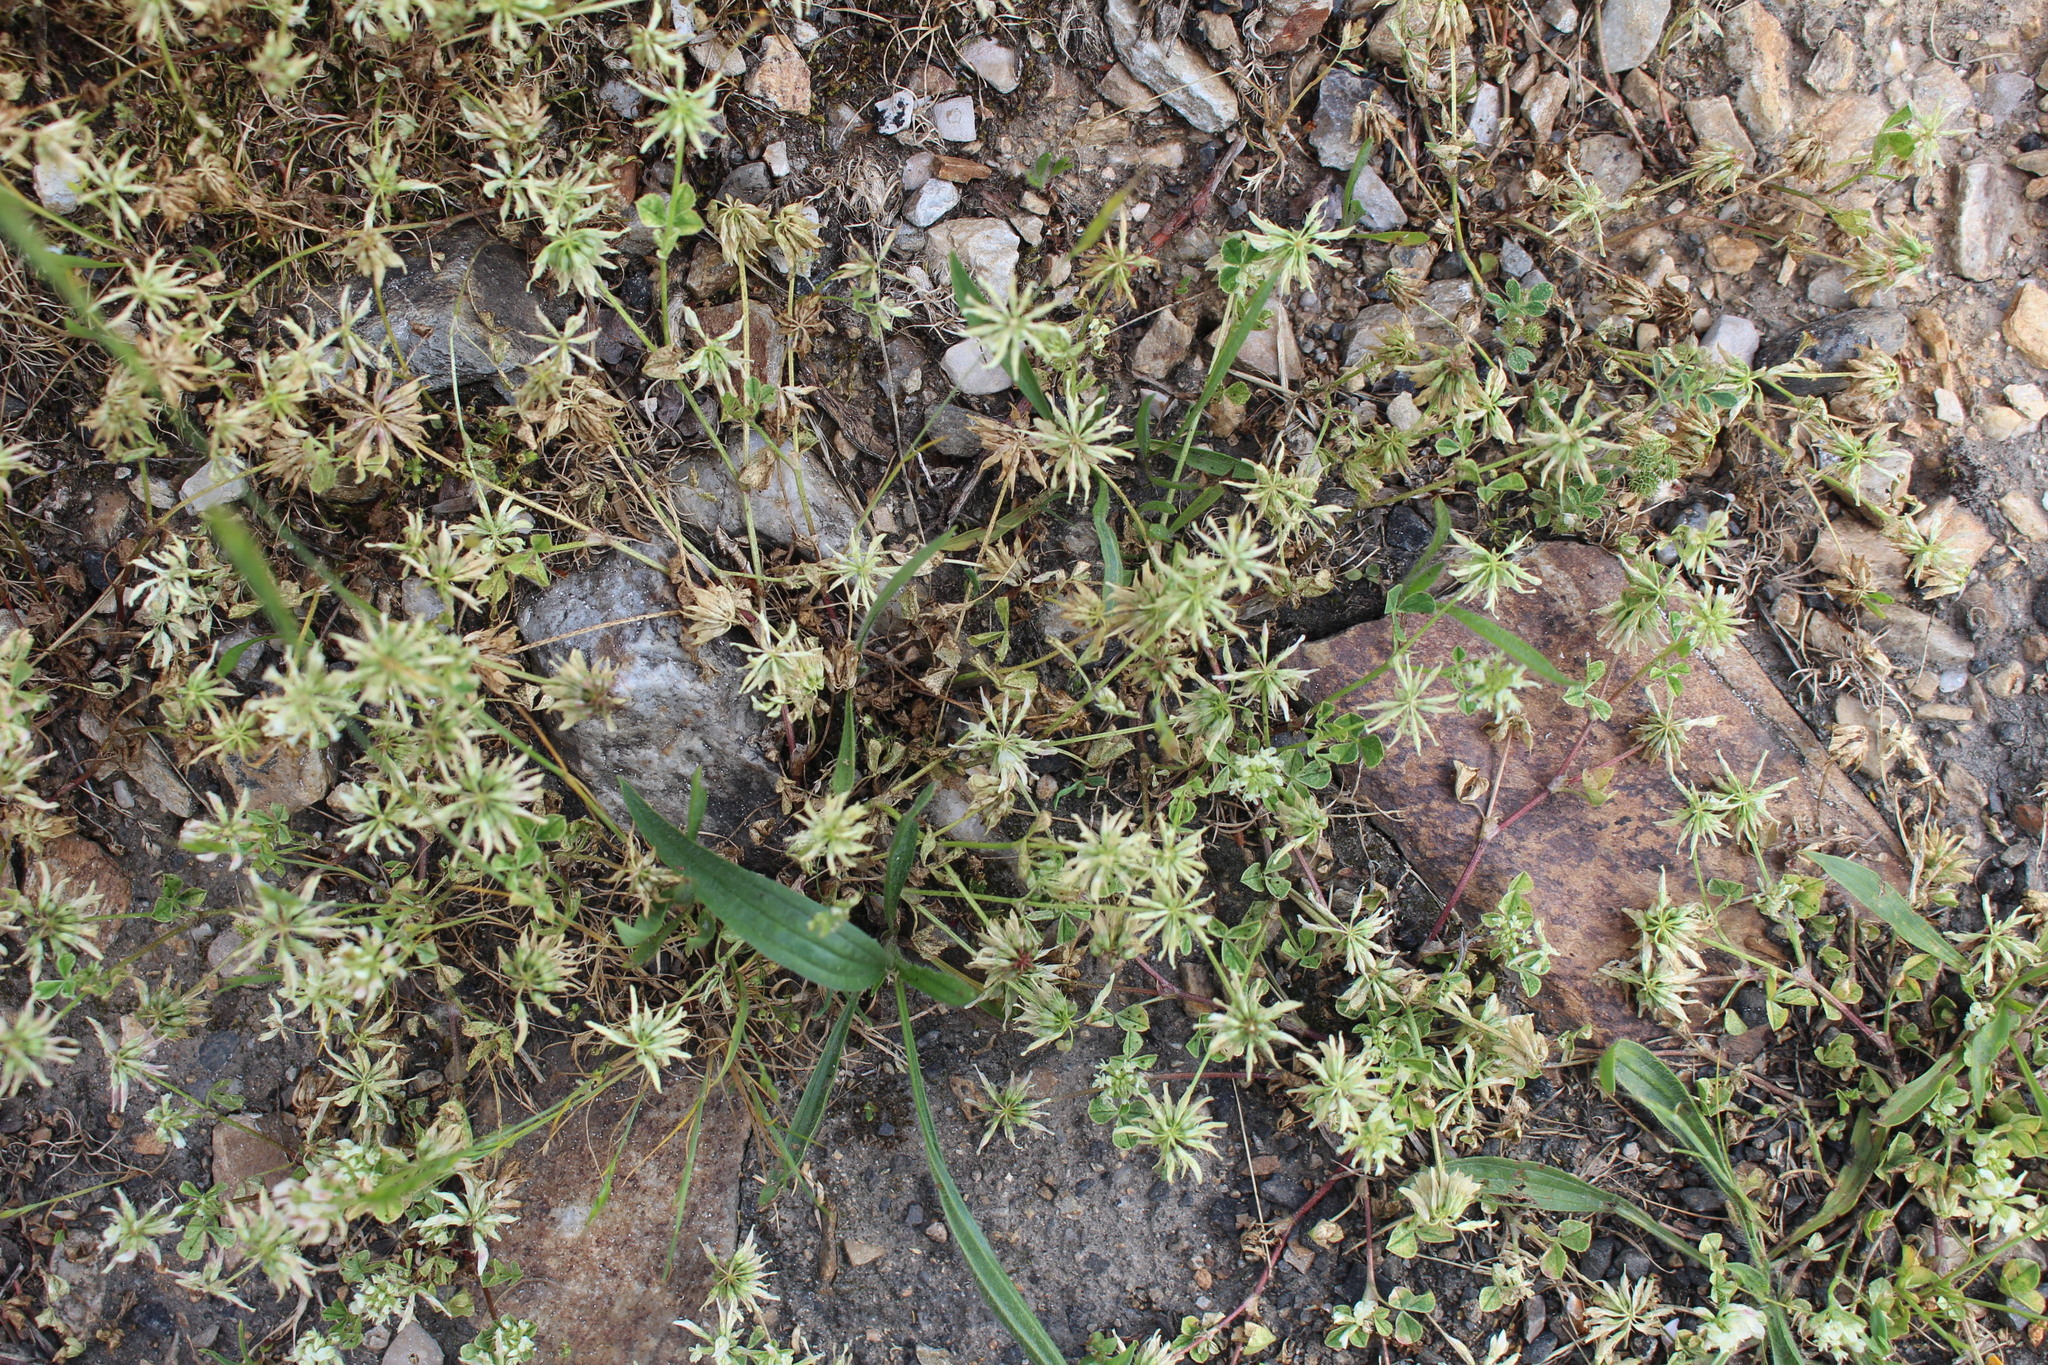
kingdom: Plantae
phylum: Tracheophyta
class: Magnoliopsida
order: Fabales
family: Fabaceae
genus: Trifolium
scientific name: Trifolium nigrescens
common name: Small white clover
